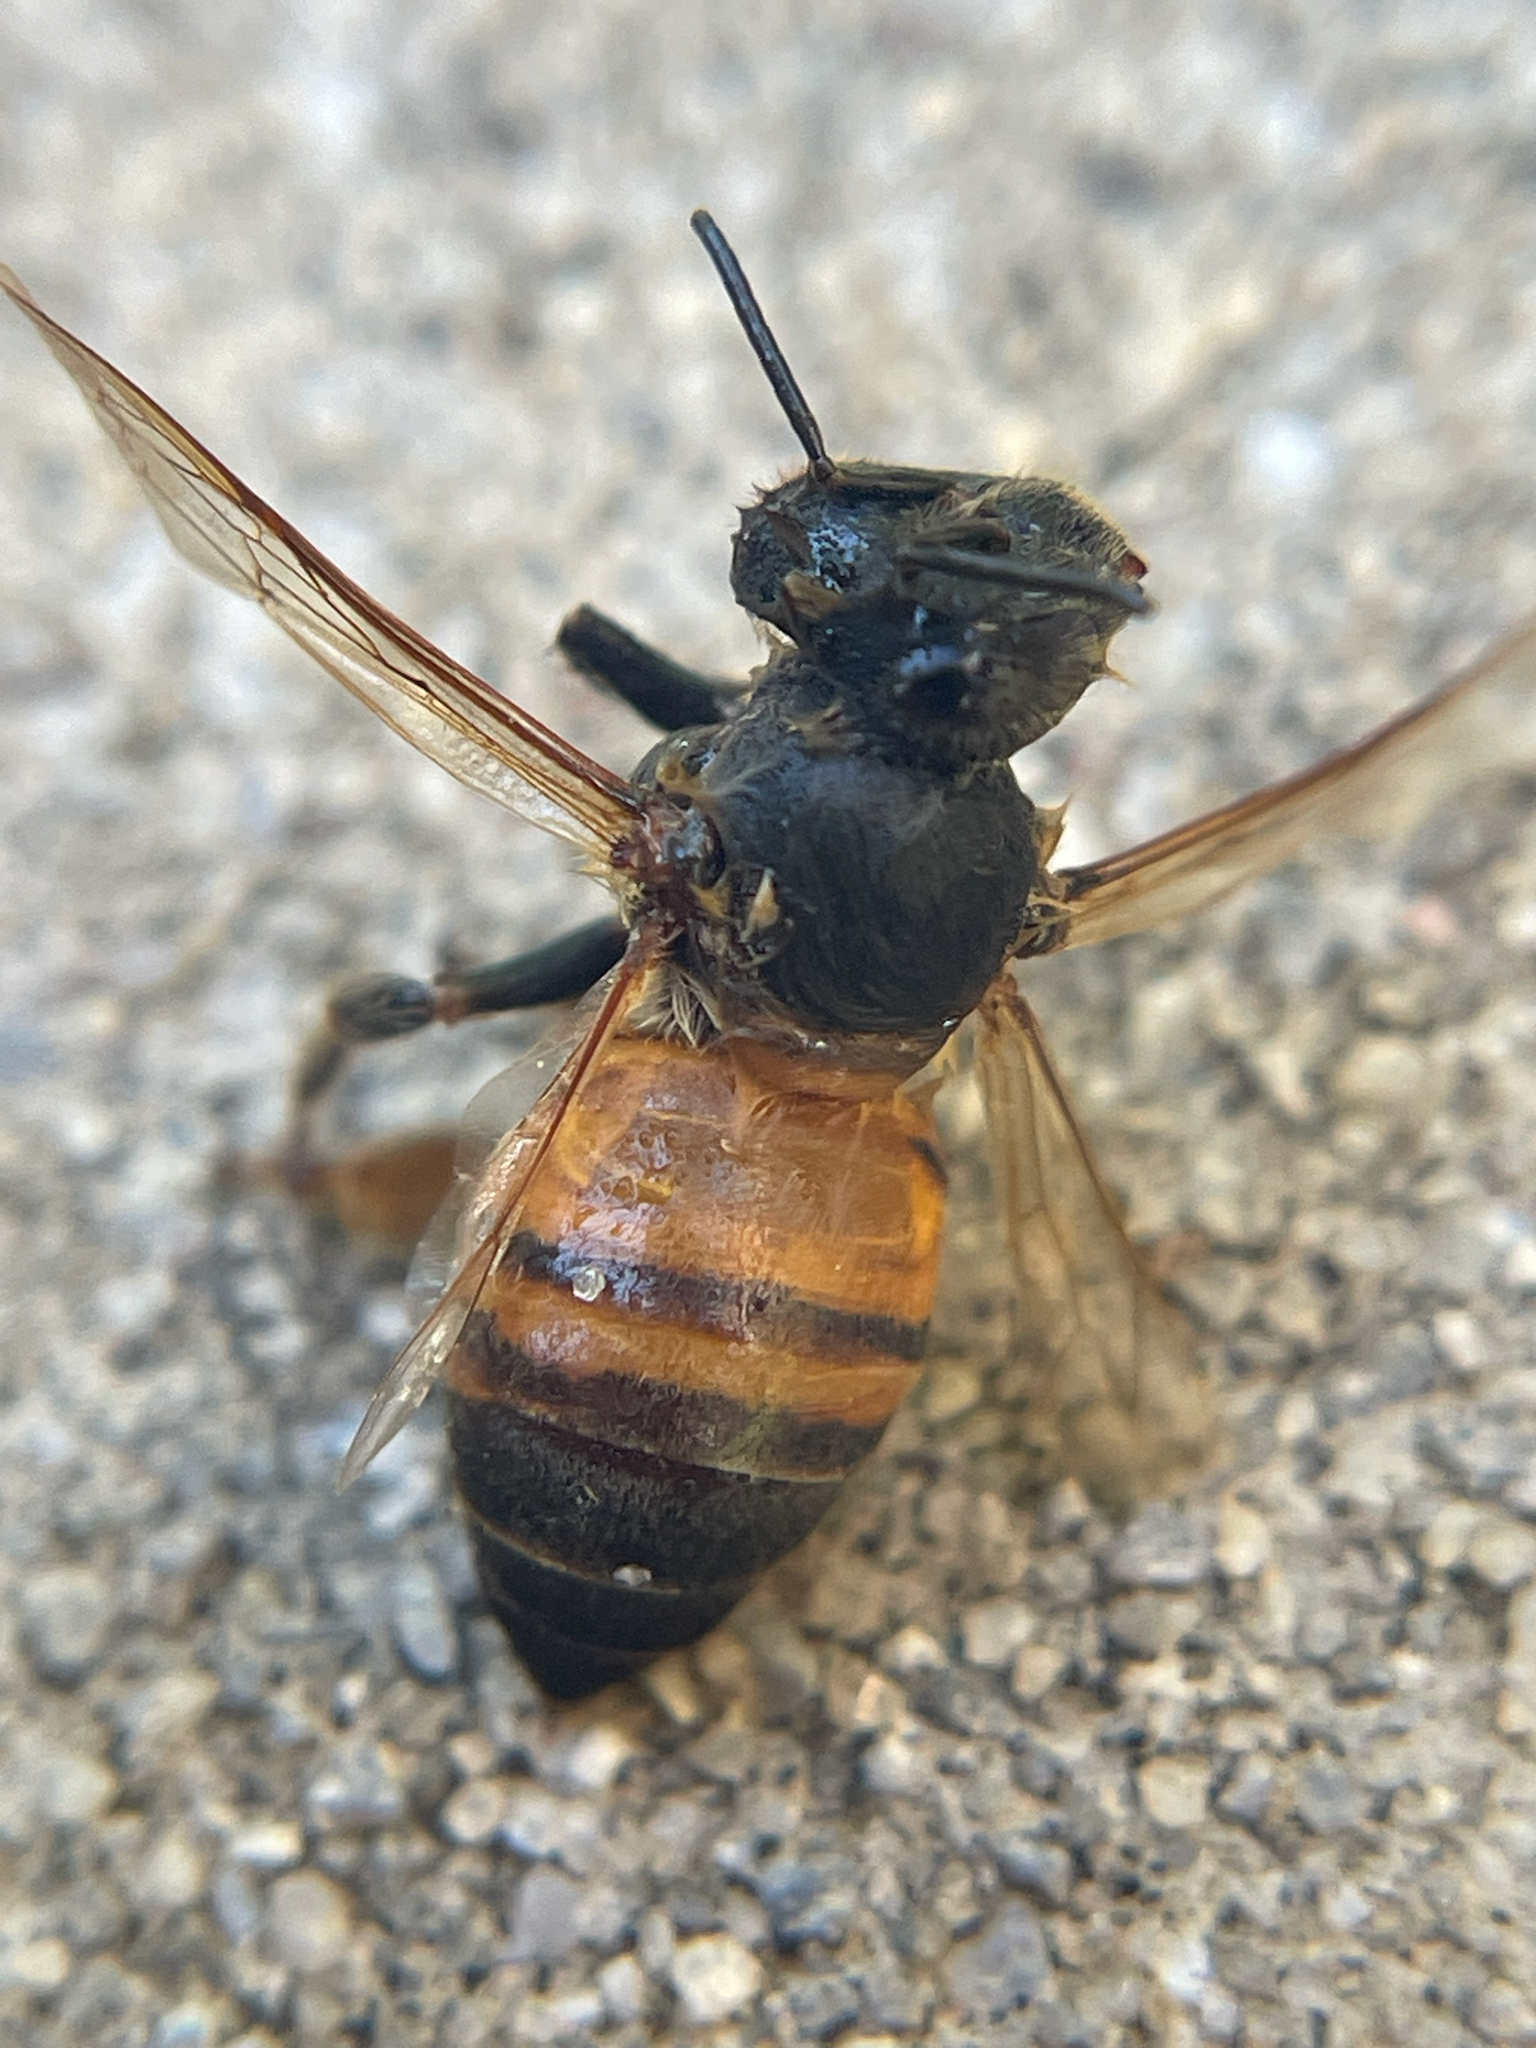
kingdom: Animalia
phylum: Arthropoda
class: Insecta
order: Hymenoptera
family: Apidae
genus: Apis
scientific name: Apis mellifera
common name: Honey bee
